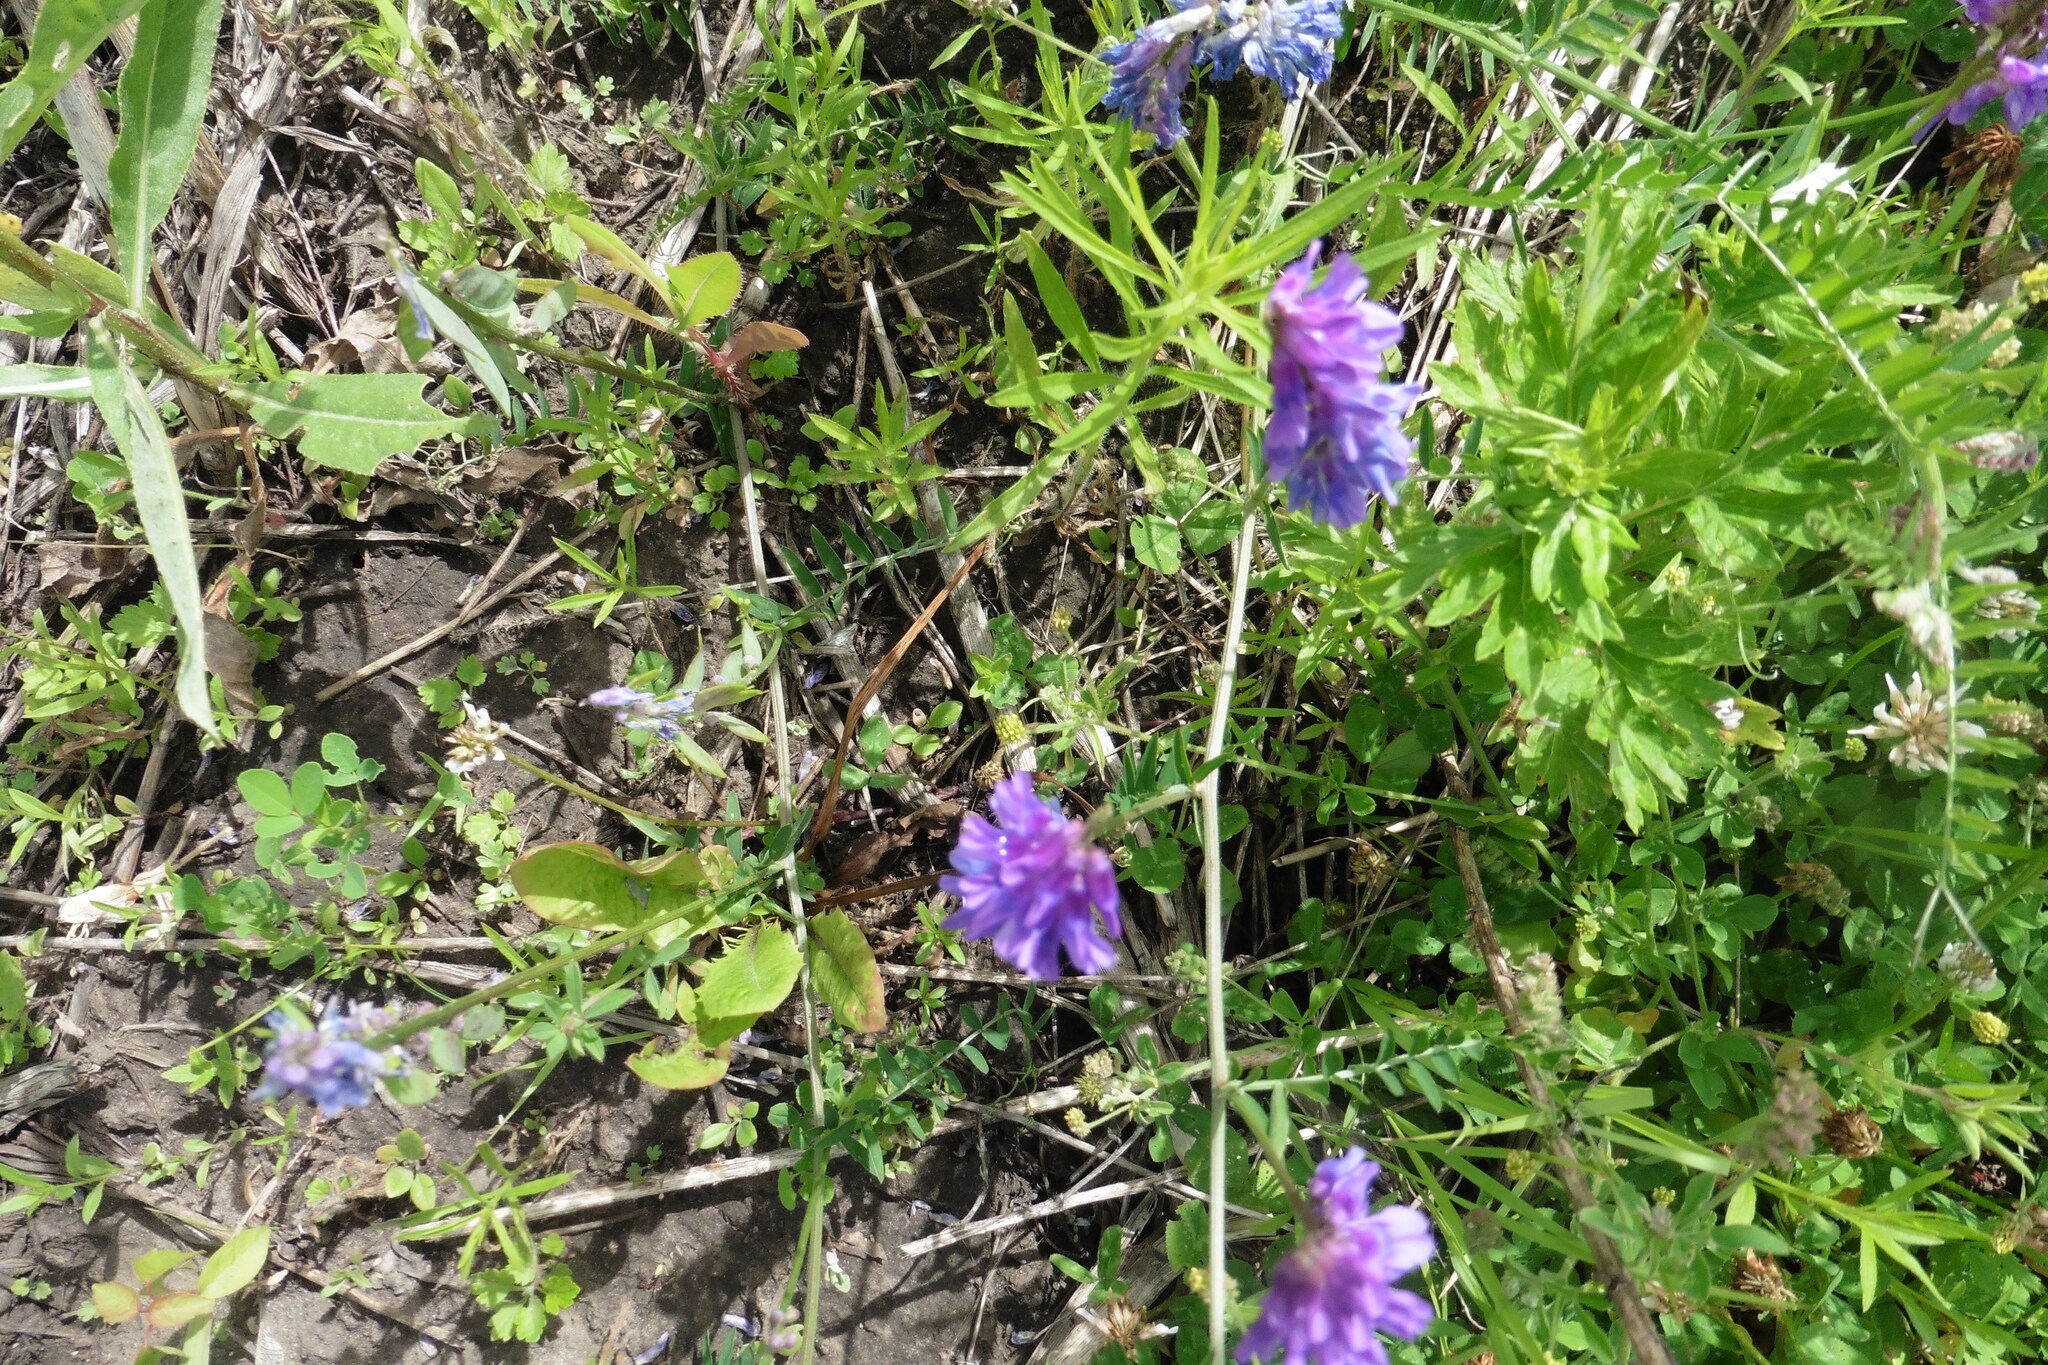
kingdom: Plantae
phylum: Tracheophyta
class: Magnoliopsida
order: Fabales
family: Fabaceae
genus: Vicia
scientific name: Vicia cracca
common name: Bird vetch
